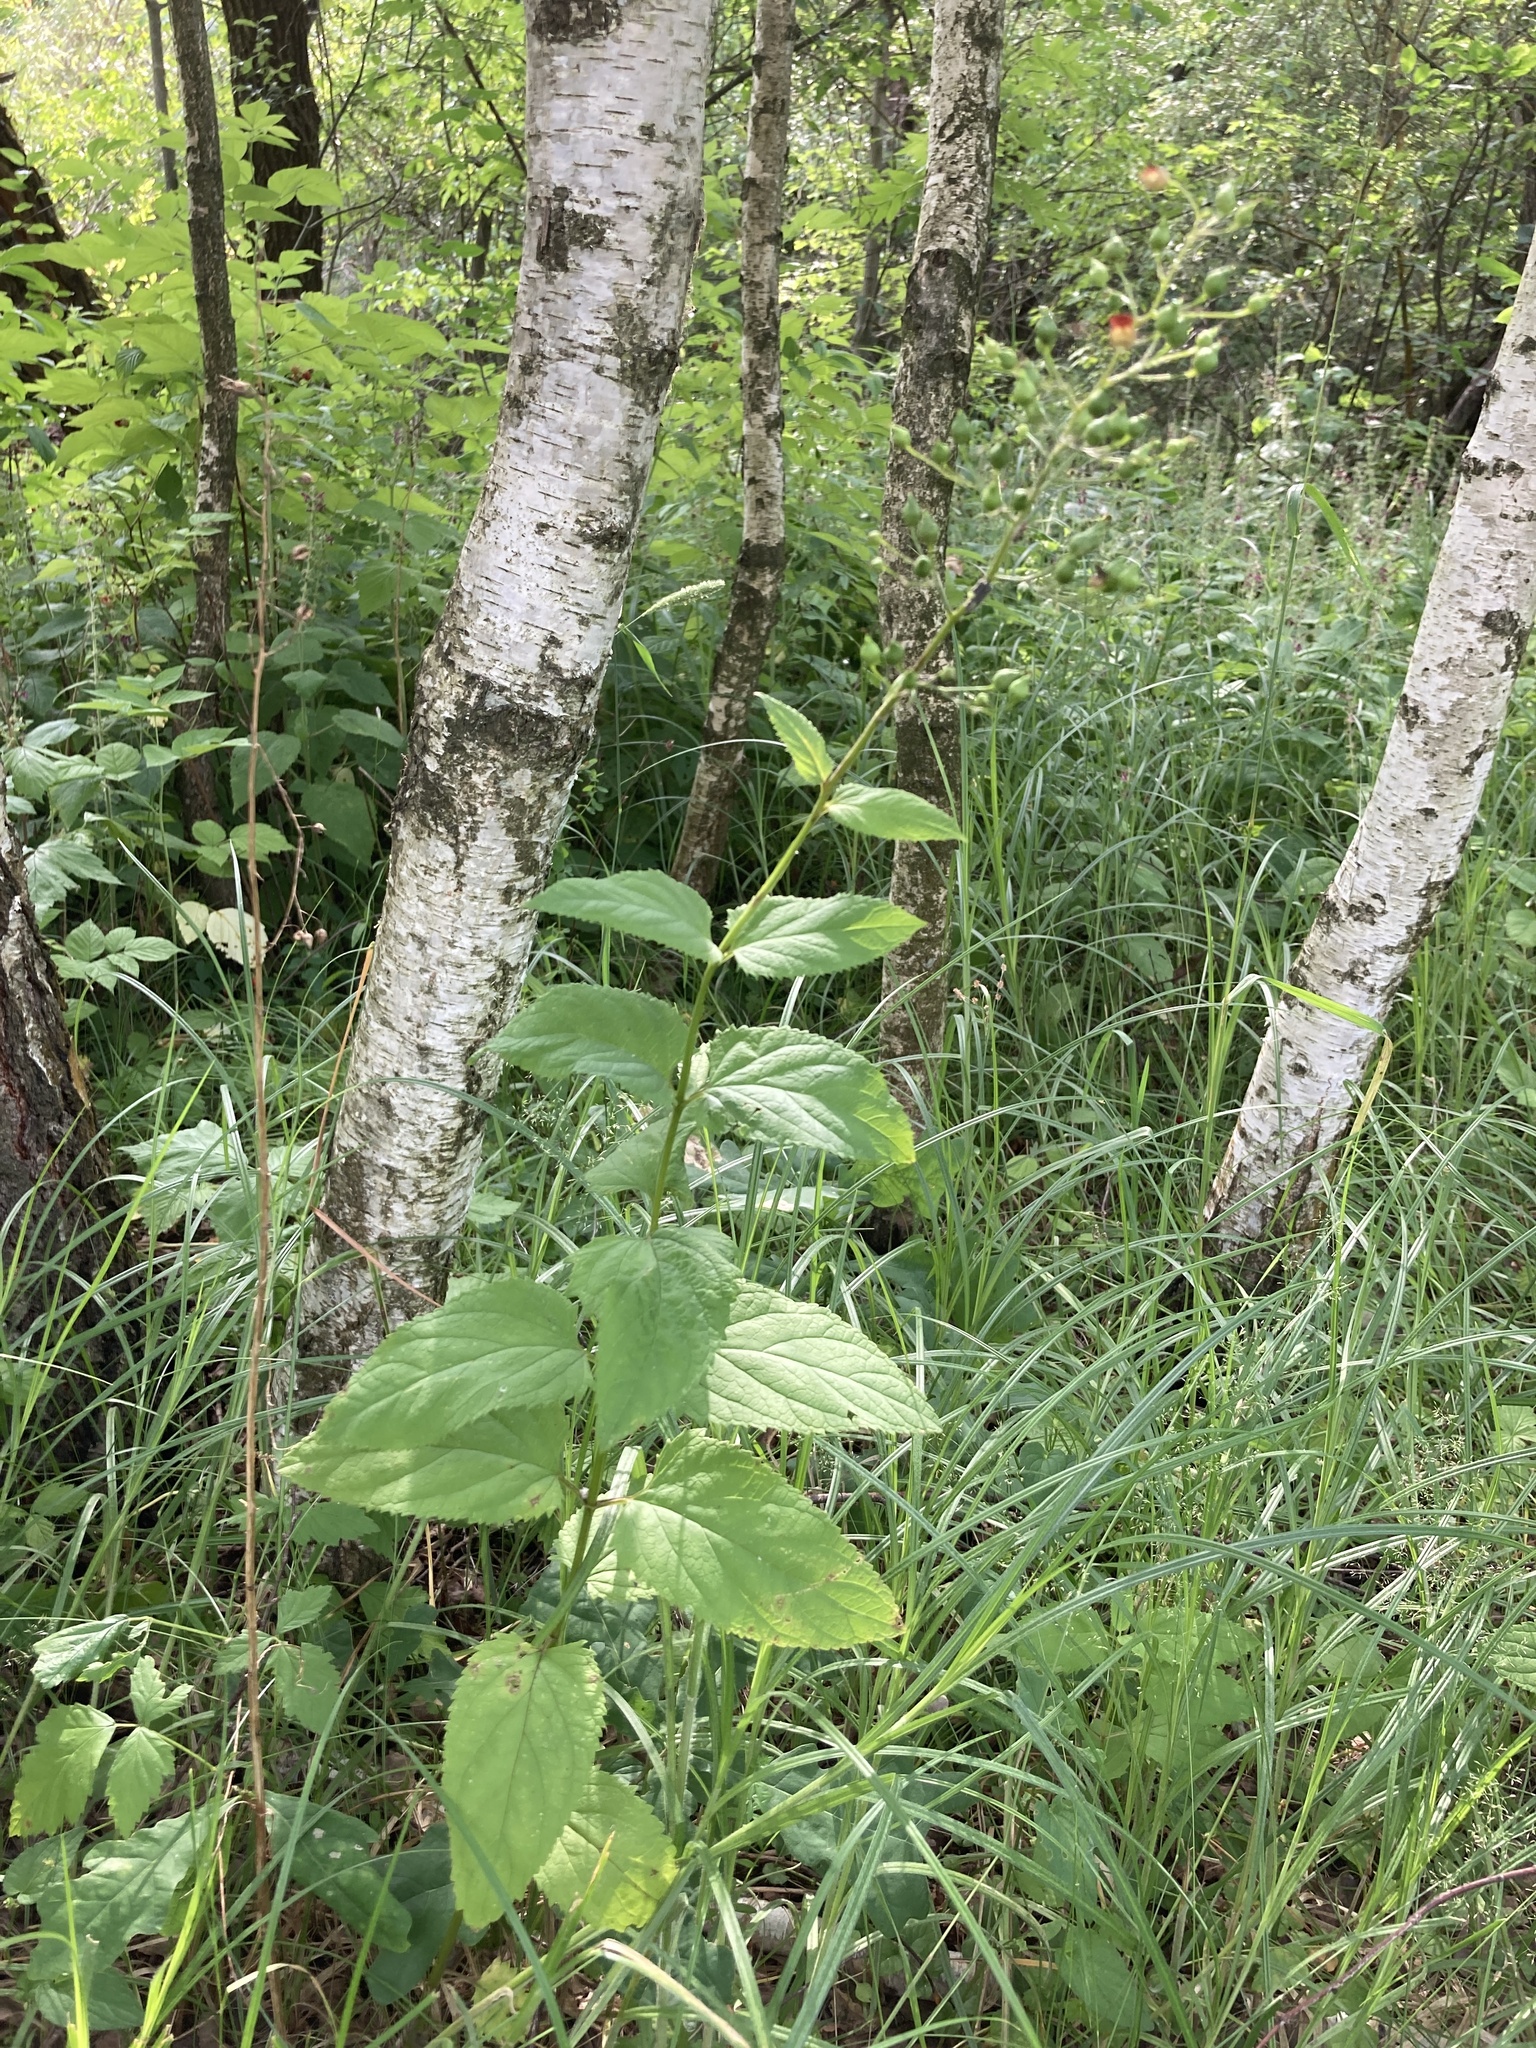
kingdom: Plantae
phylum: Tracheophyta
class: Magnoliopsida
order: Lamiales
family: Scrophulariaceae
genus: Scrophularia
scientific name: Scrophularia nodosa
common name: Common figwort
